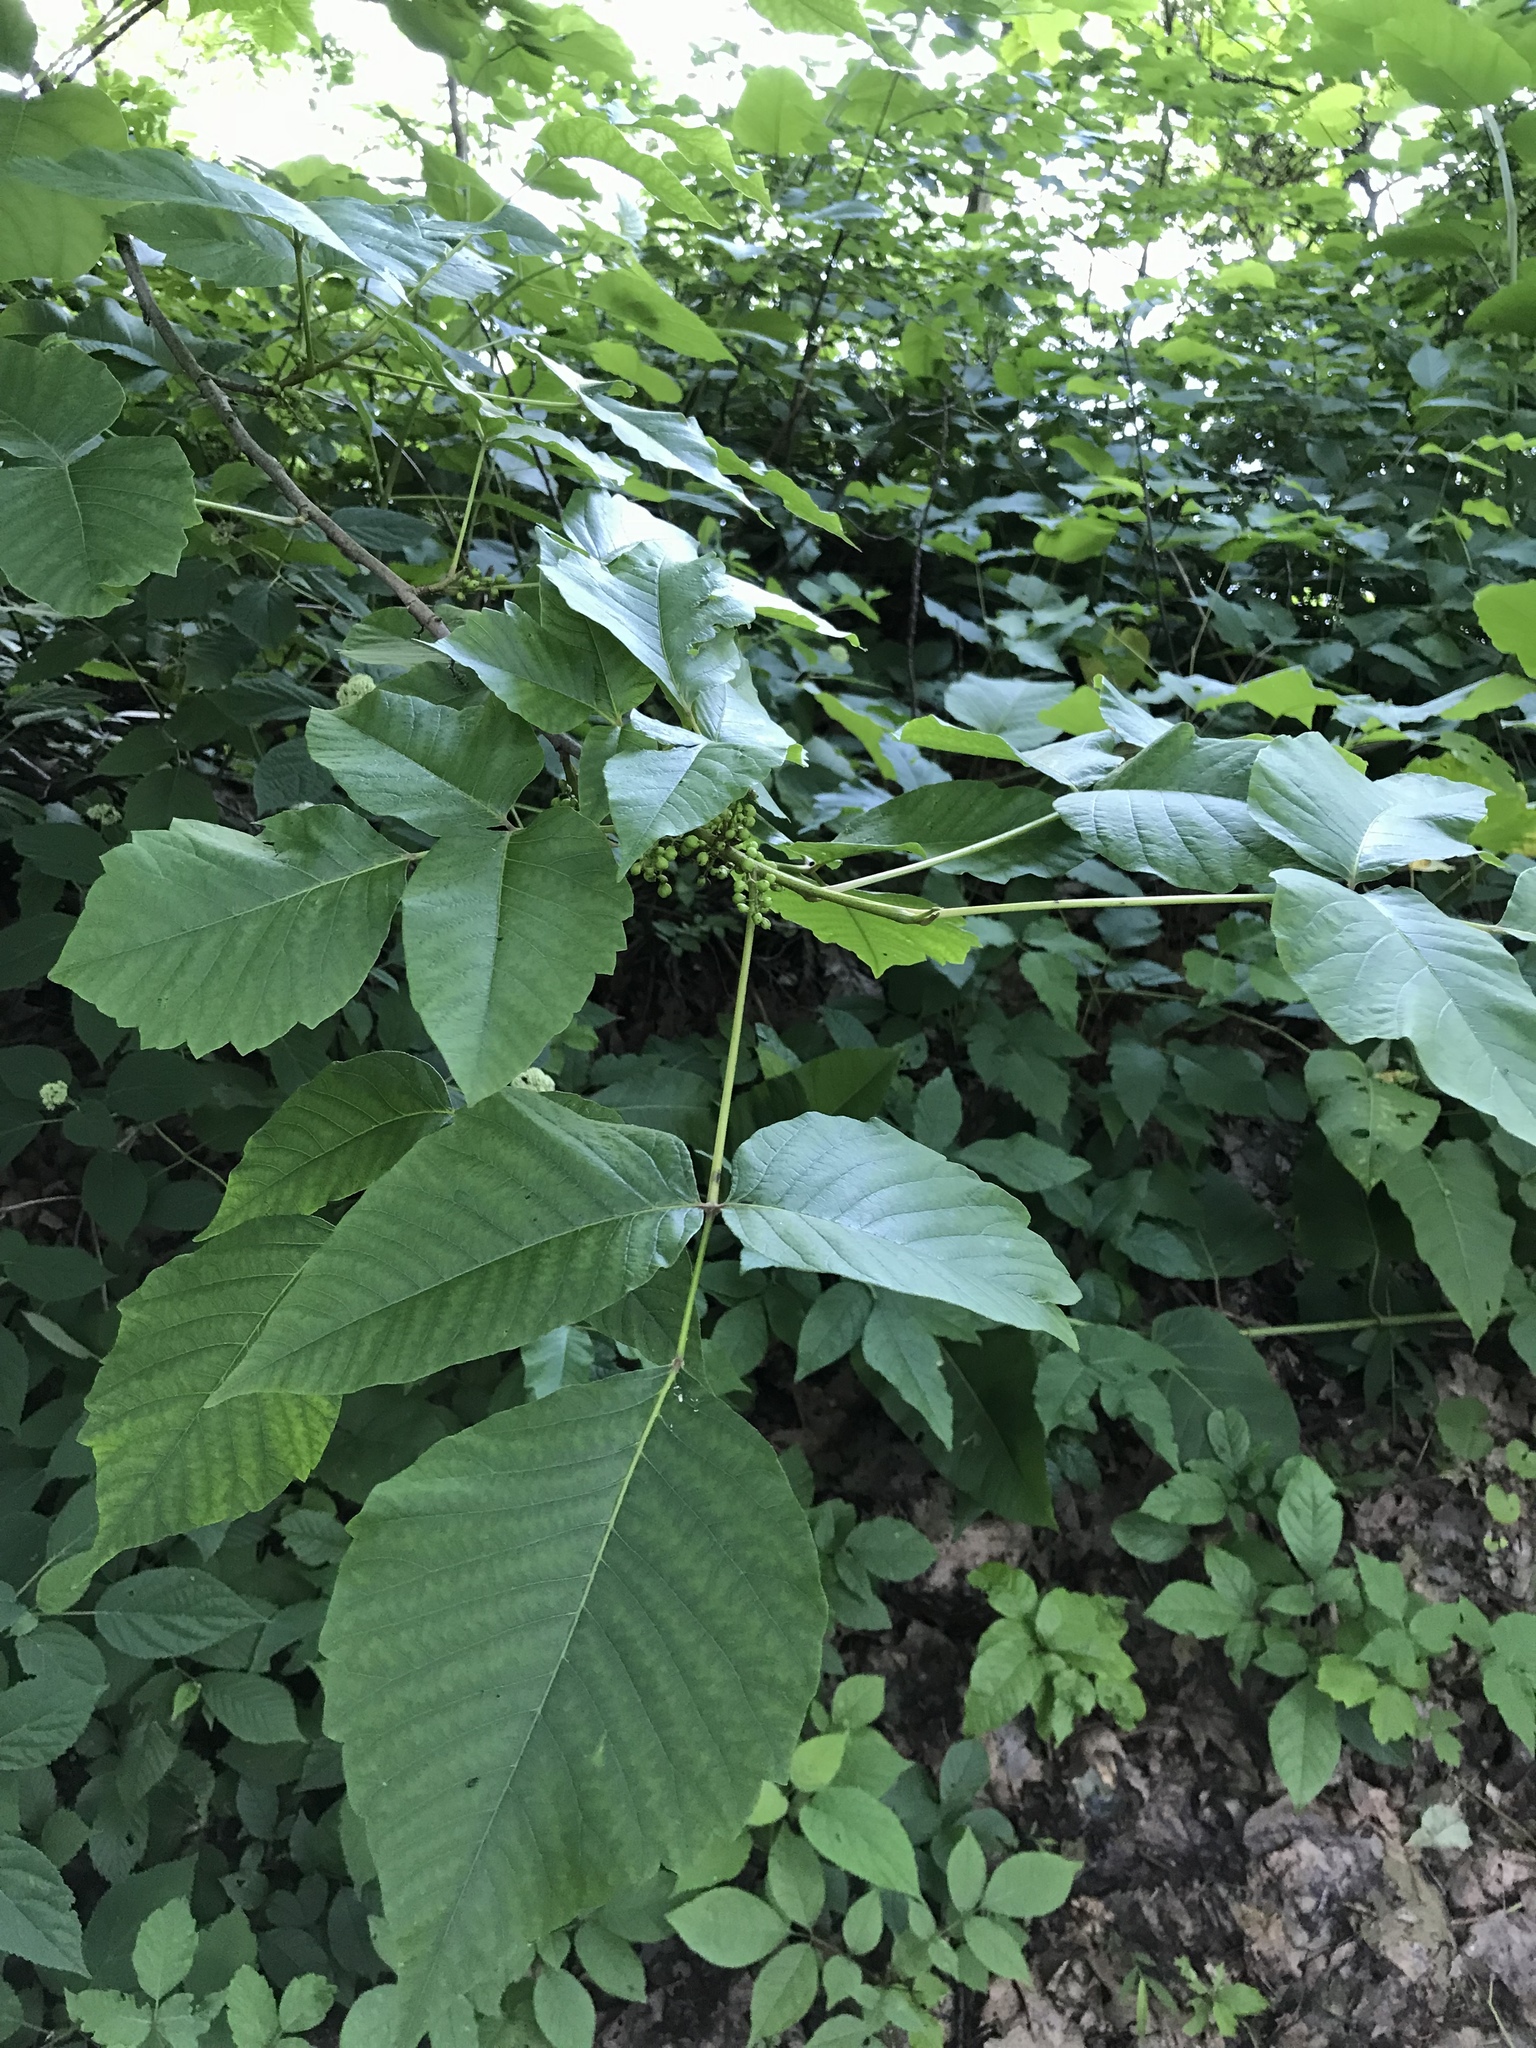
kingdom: Plantae
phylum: Tracheophyta
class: Magnoliopsida
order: Sapindales
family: Anacardiaceae
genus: Toxicodendron
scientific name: Toxicodendron radicans
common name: Poison ivy
